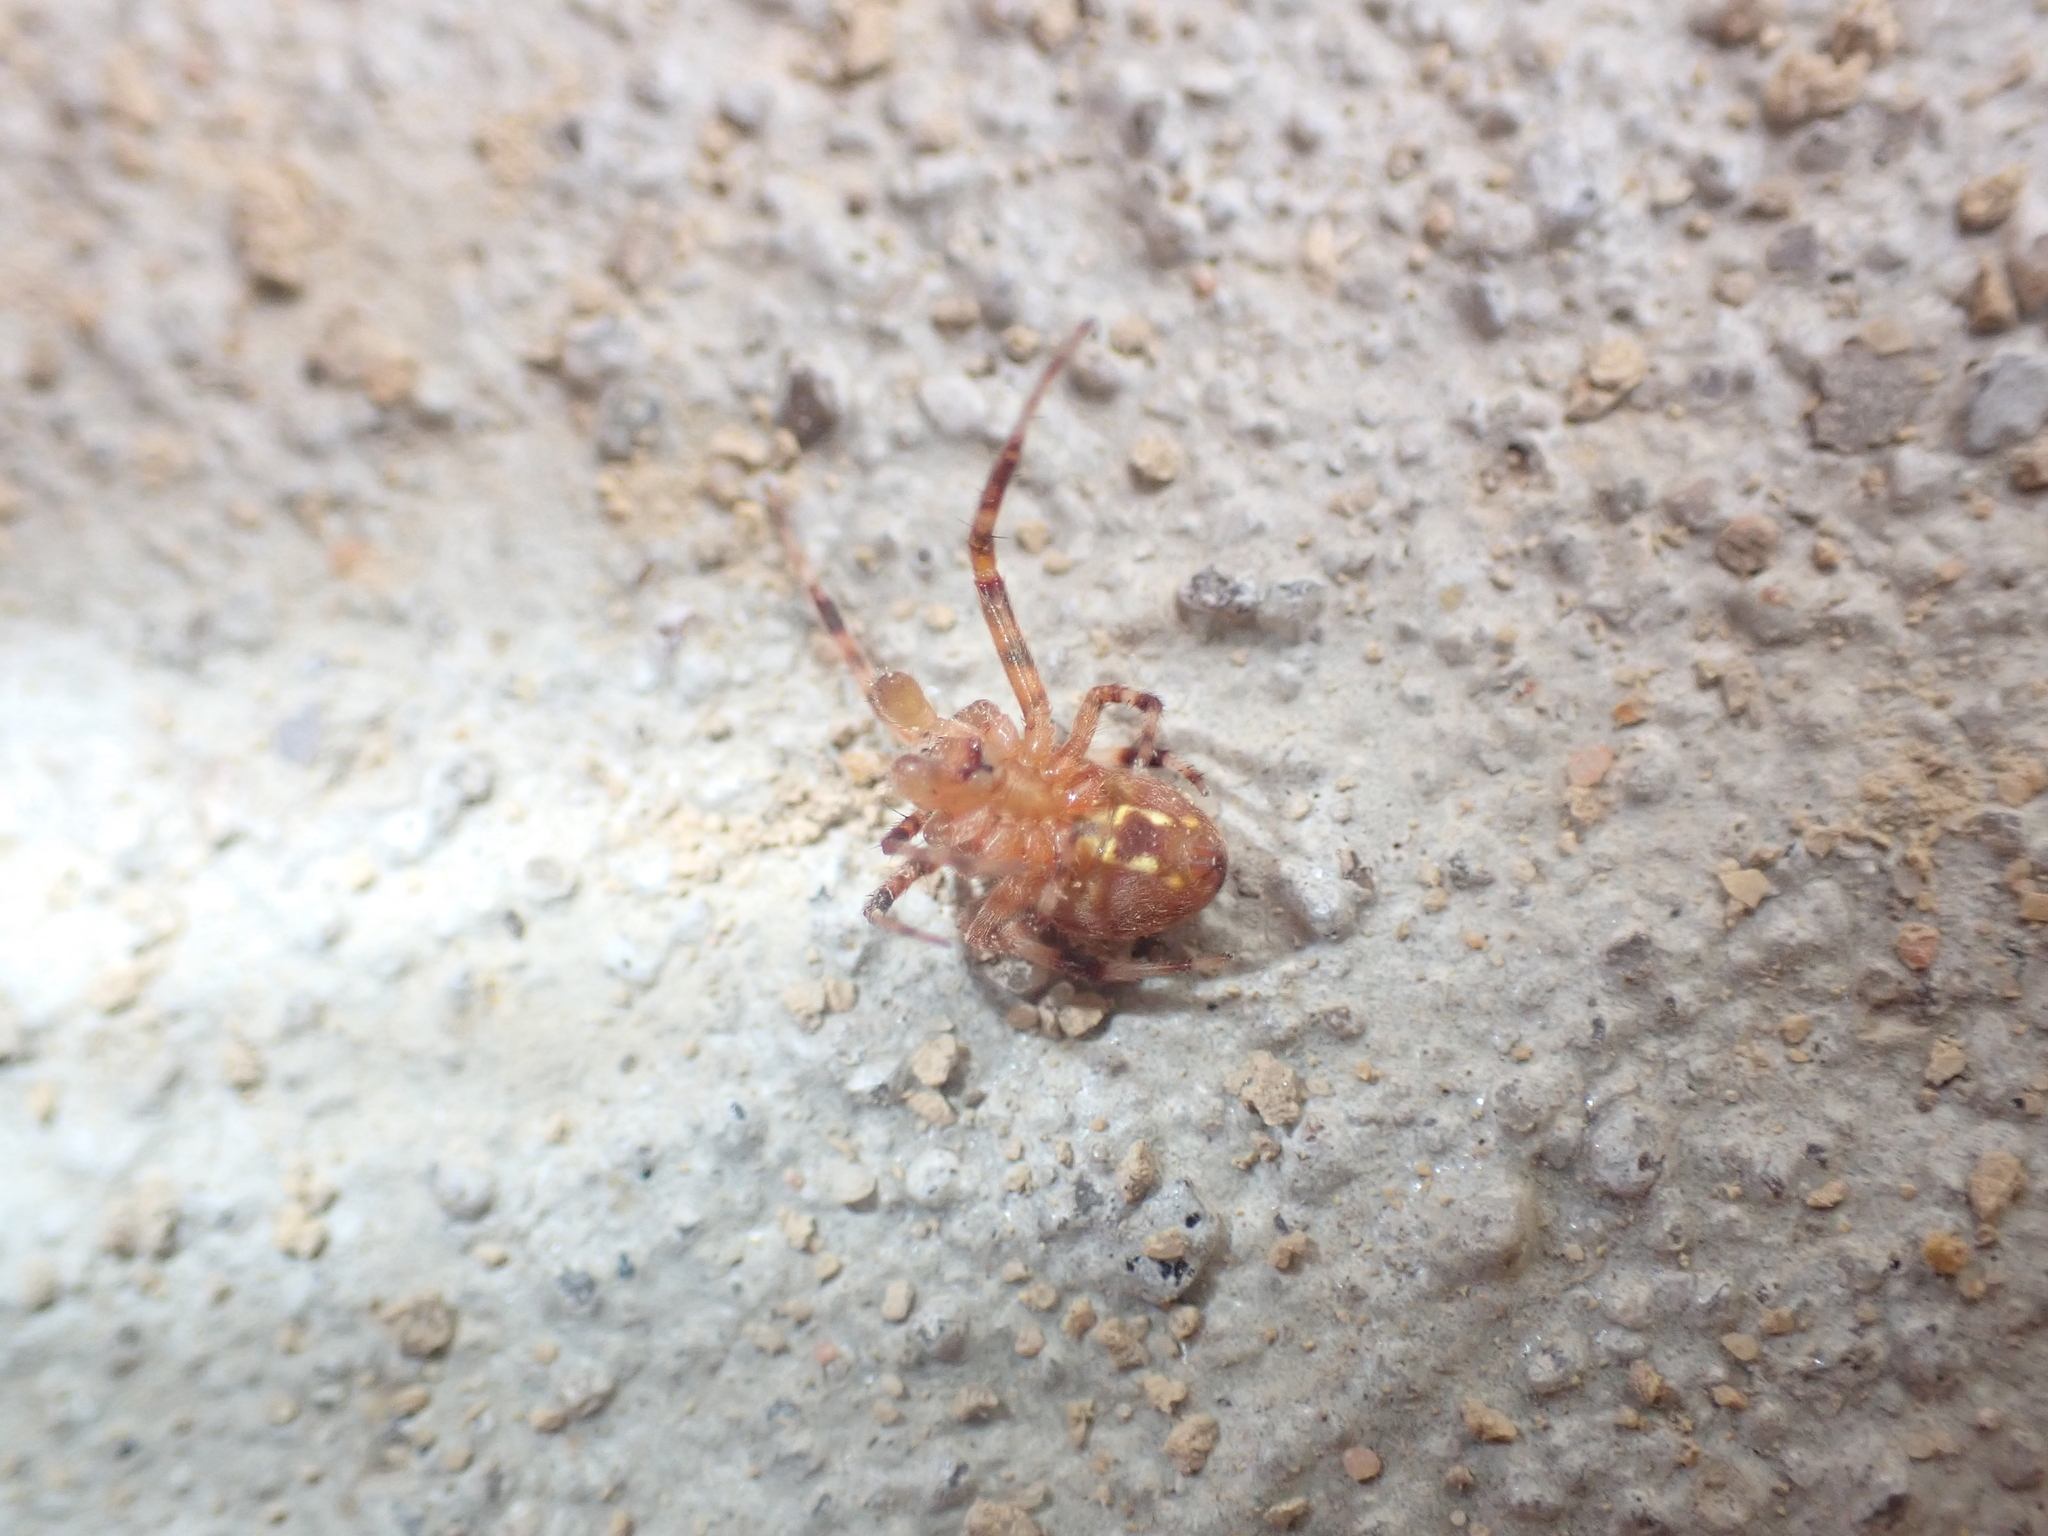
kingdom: Animalia
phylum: Arthropoda
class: Arachnida
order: Araneae
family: Araneidae
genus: Neoscona
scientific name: Neoscona crucifera
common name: Spotted orbweaver
